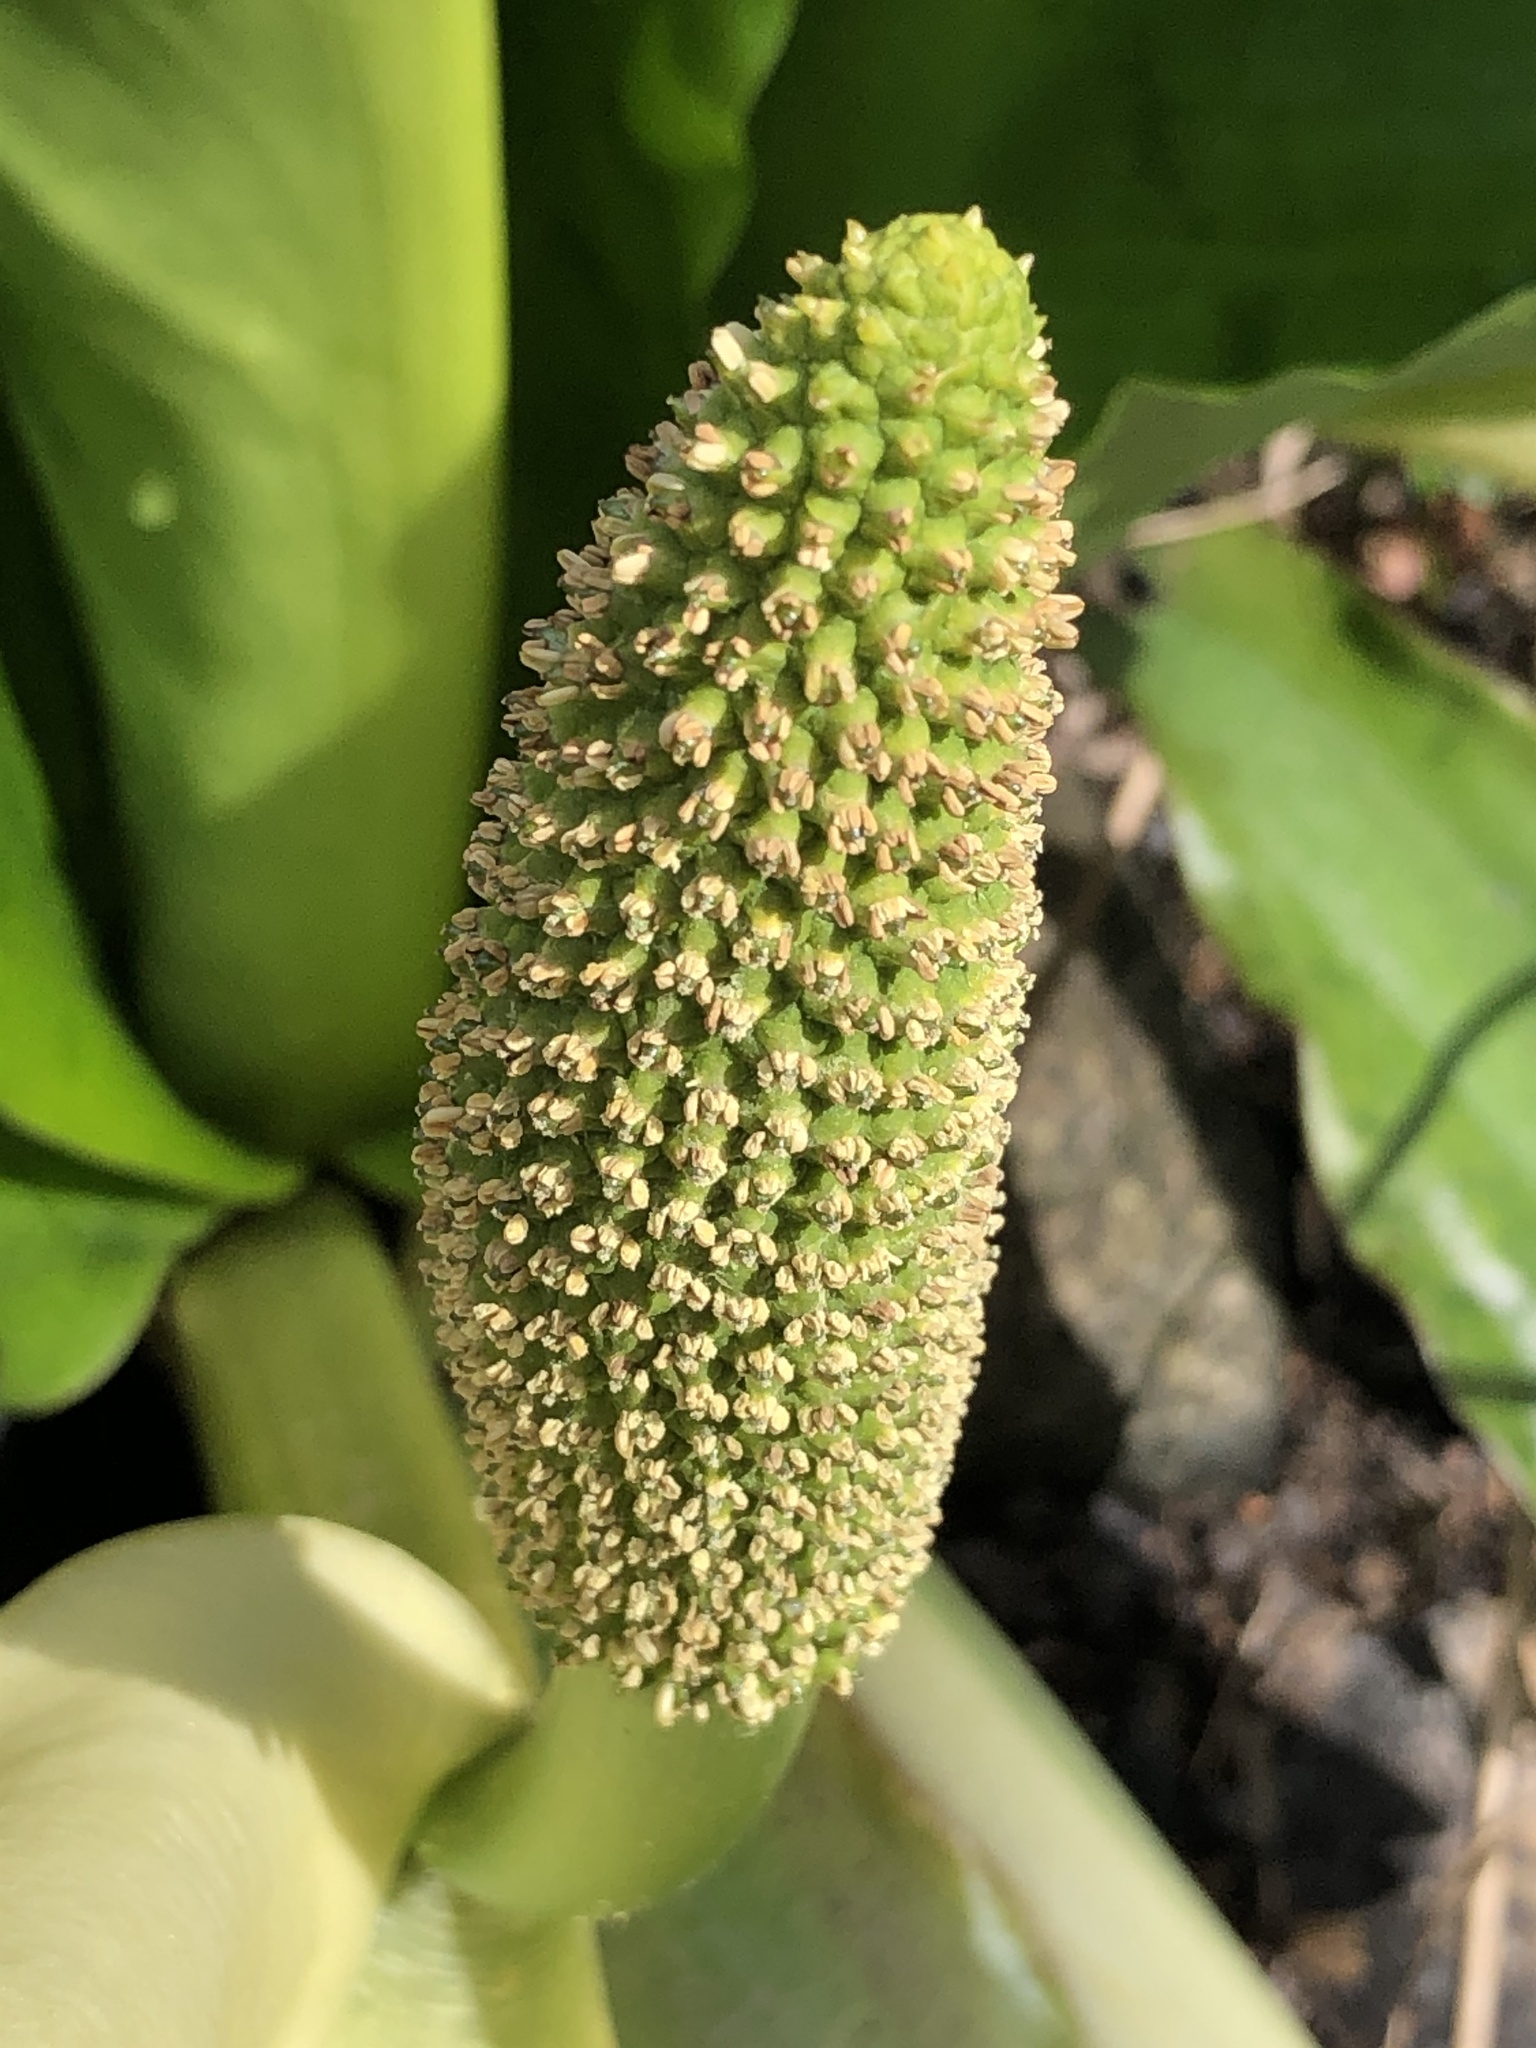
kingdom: Plantae
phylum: Tracheophyta
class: Liliopsida
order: Alismatales
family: Araceae
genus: Lysichiton
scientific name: Lysichiton americanus
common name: American skunk cabbage
